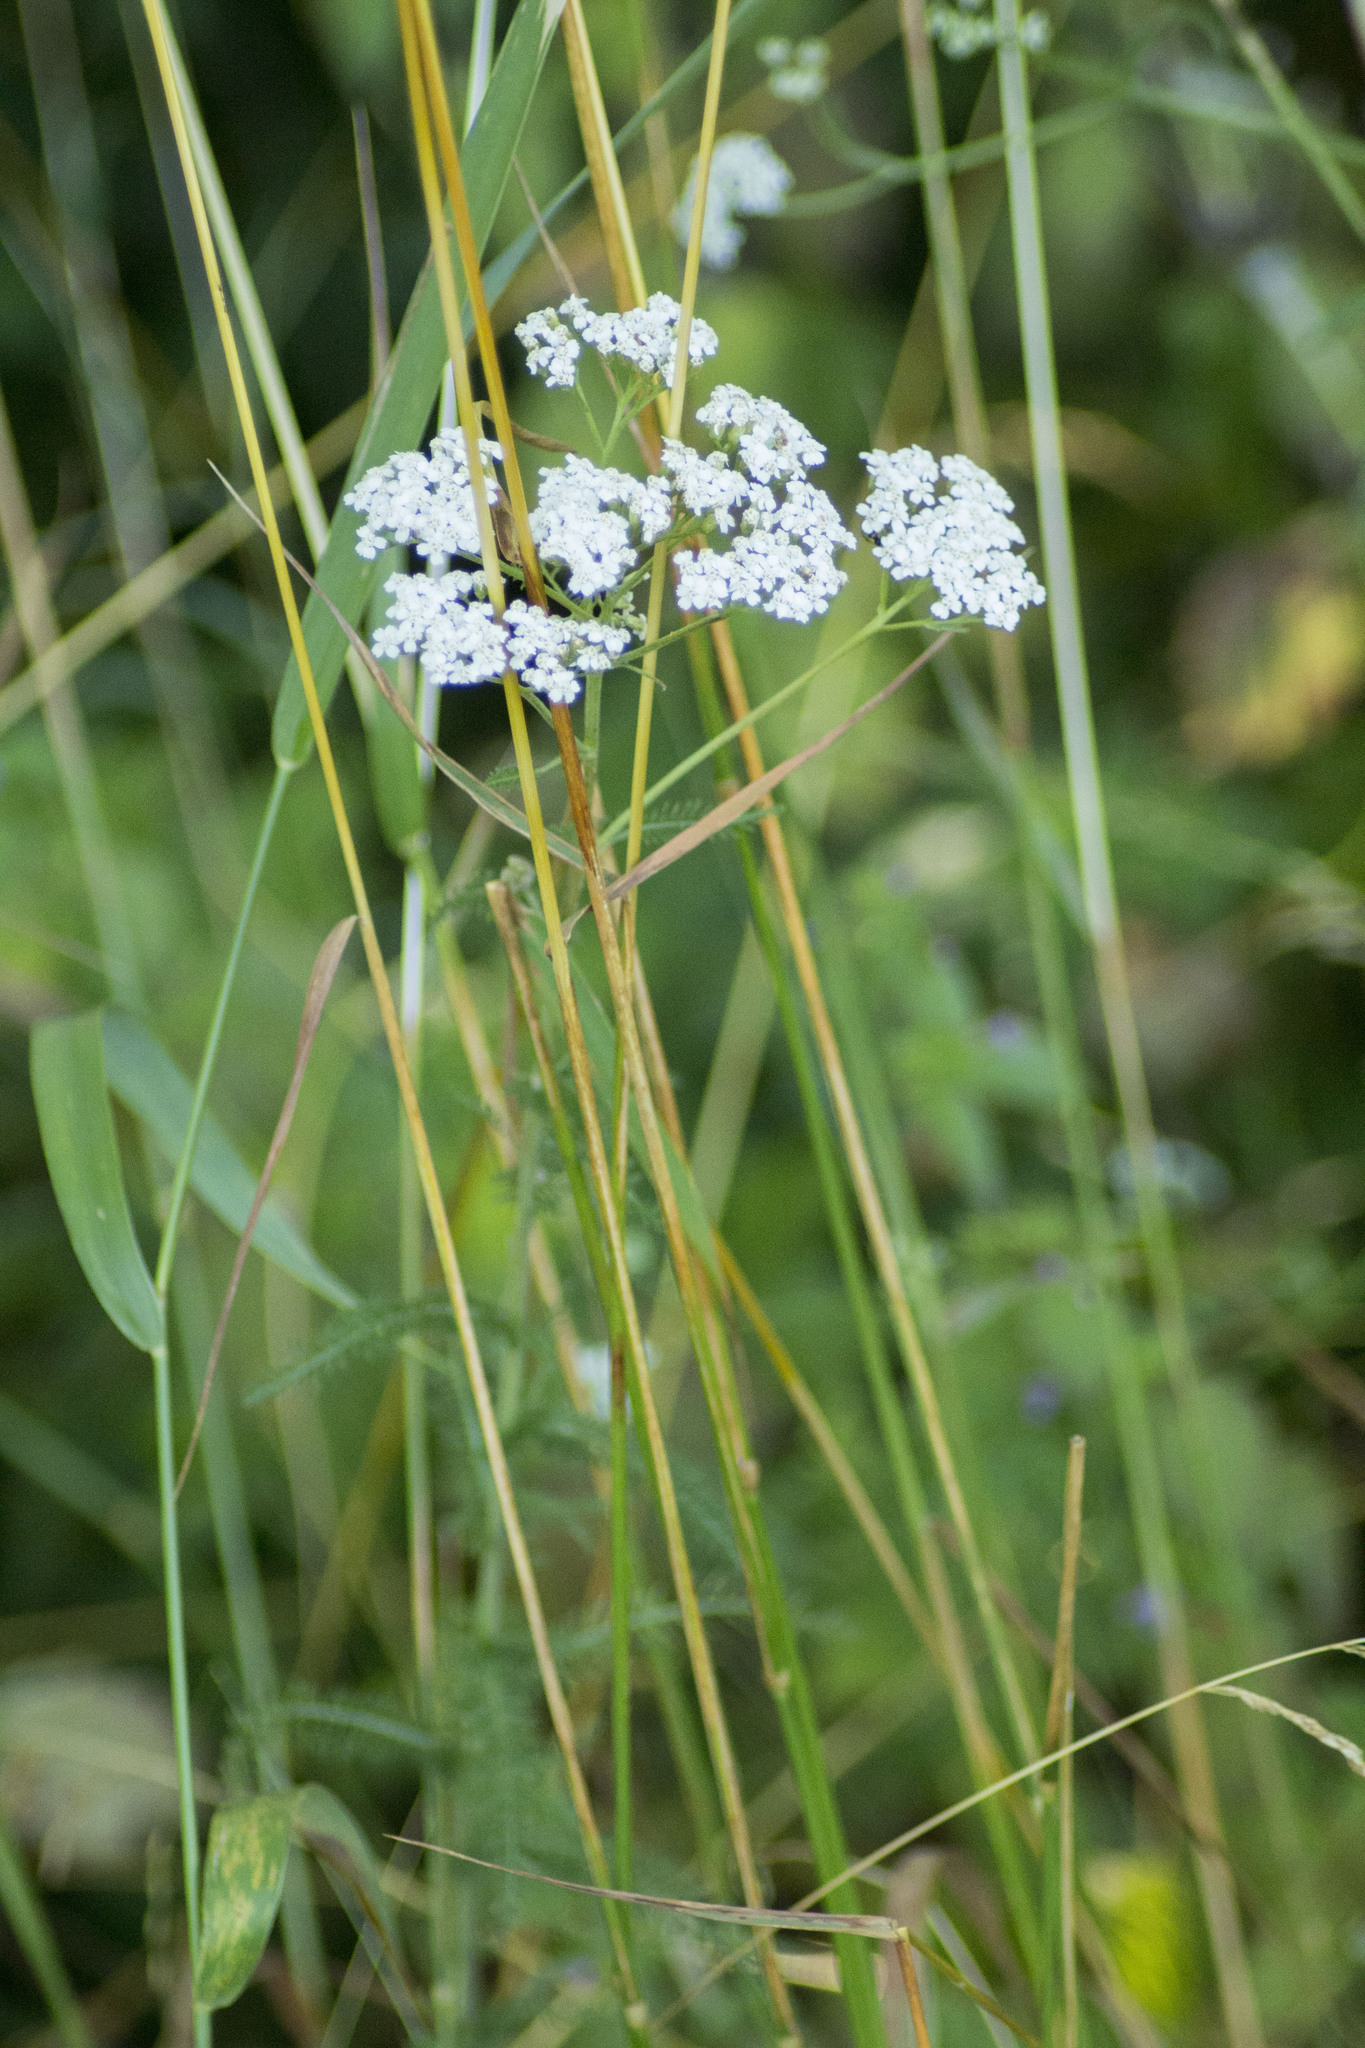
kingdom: Plantae
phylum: Tracheophyta
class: Magnoliopsida
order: Asterales
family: Asteraceae
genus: Achillea
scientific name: Achillea millefolium
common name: Yarrow
